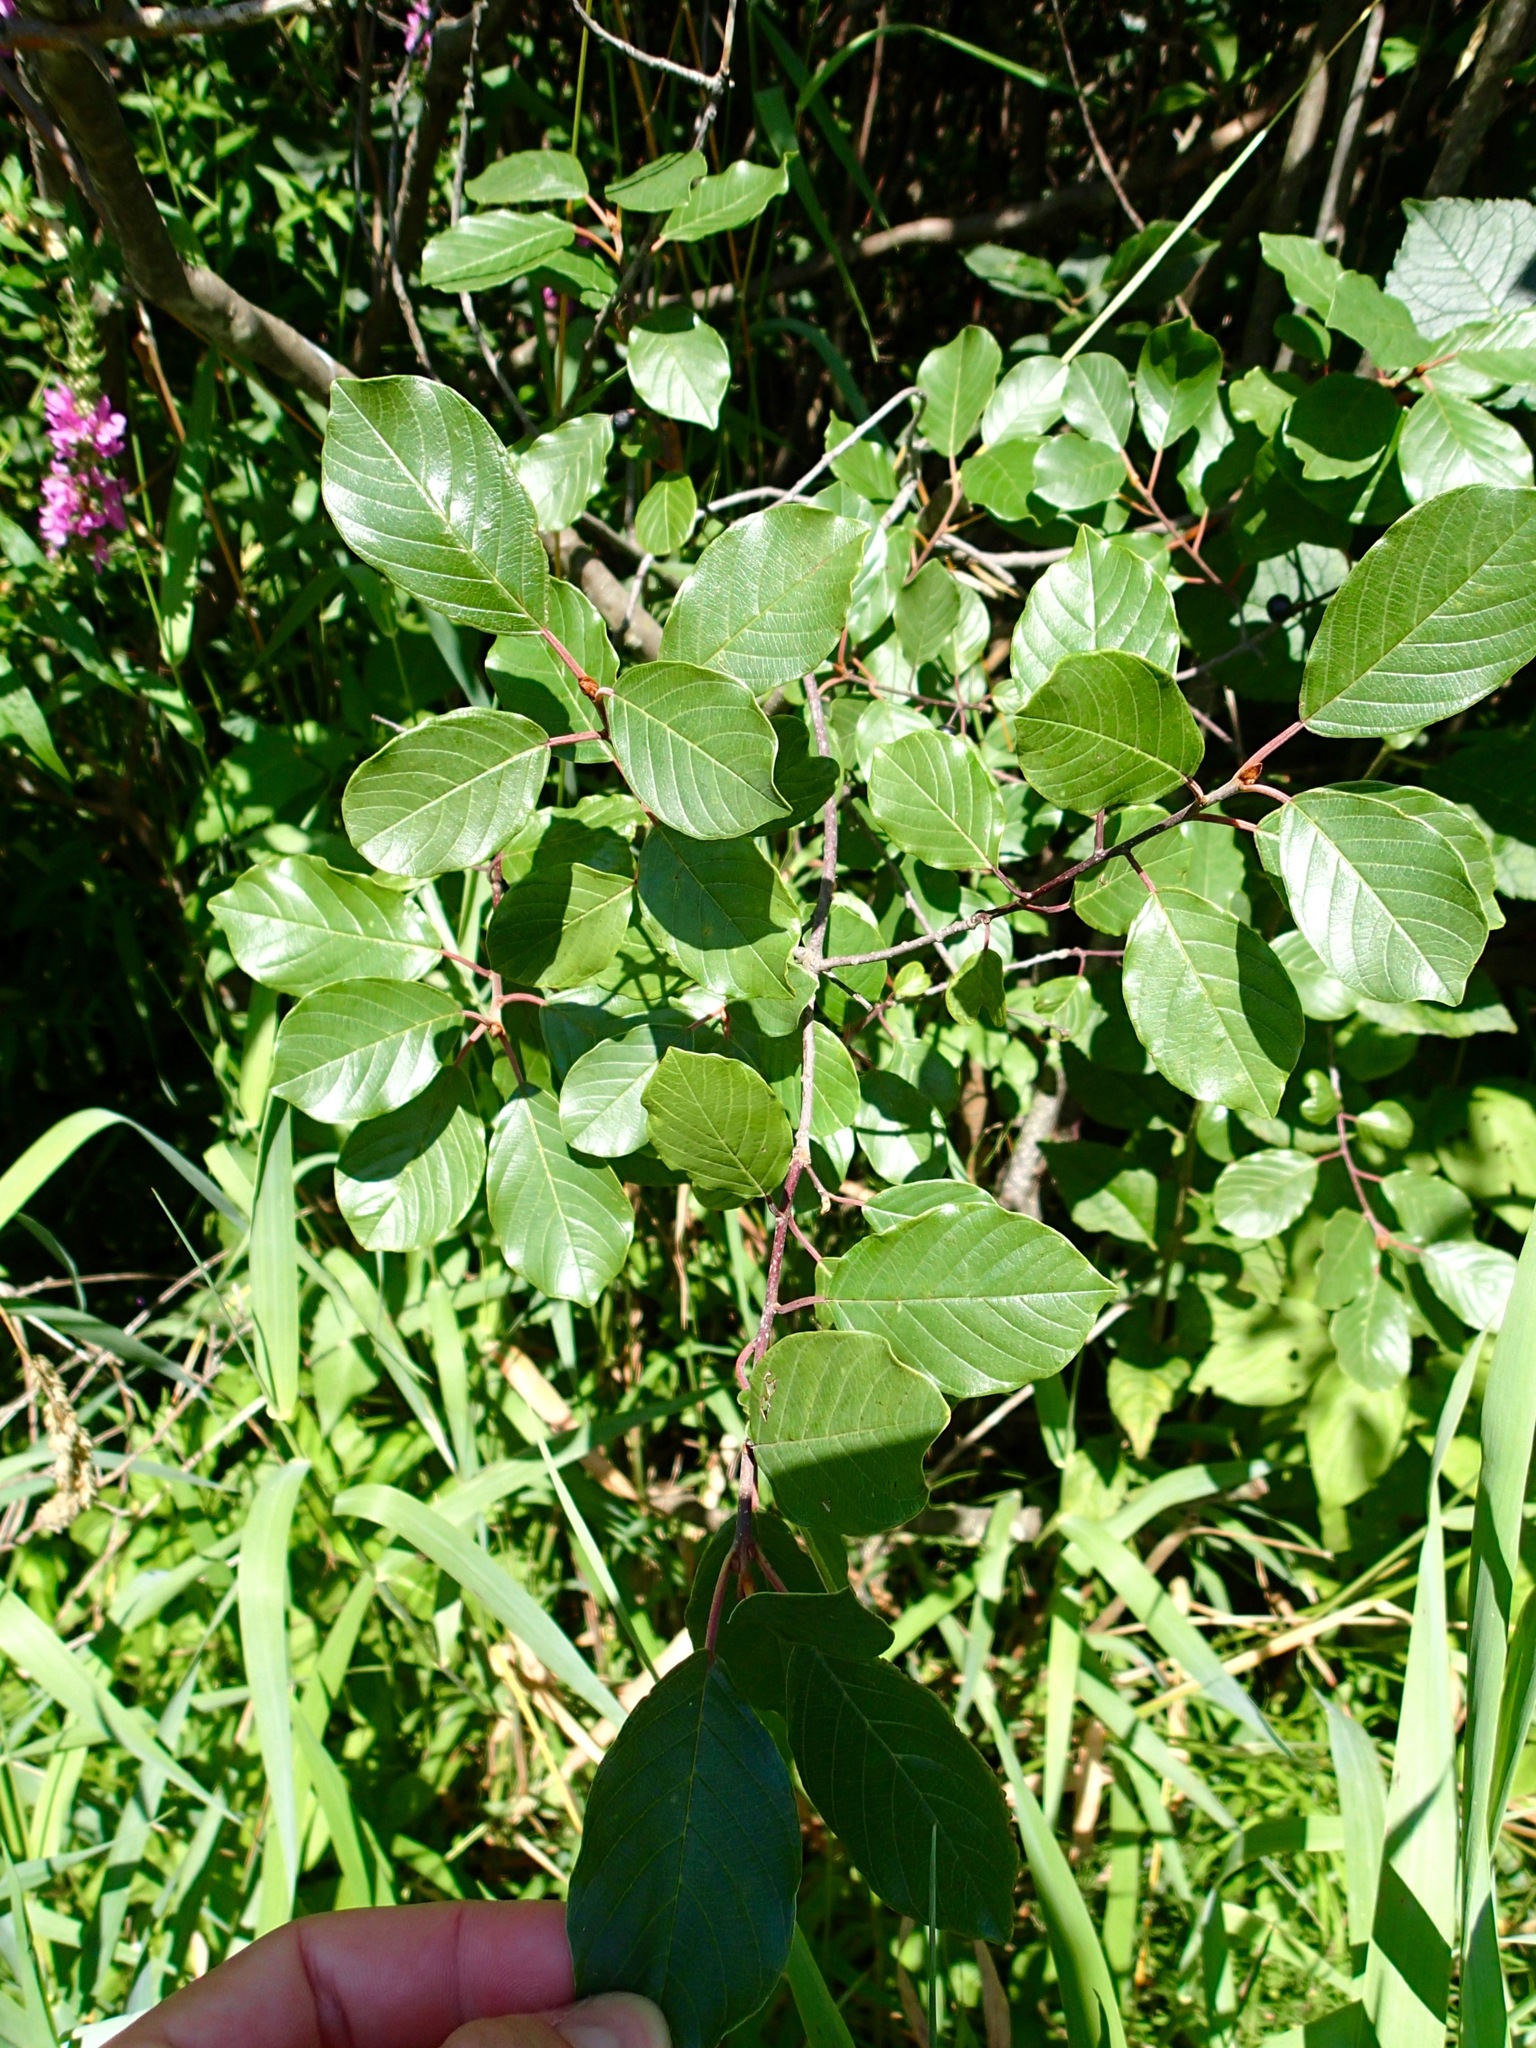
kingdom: Plantae
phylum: Tracheophyta
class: Magnoliopsida
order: Rosales
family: Rhamnaceae
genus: Frangula
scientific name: Frangula alnus
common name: Alder buckthorn
